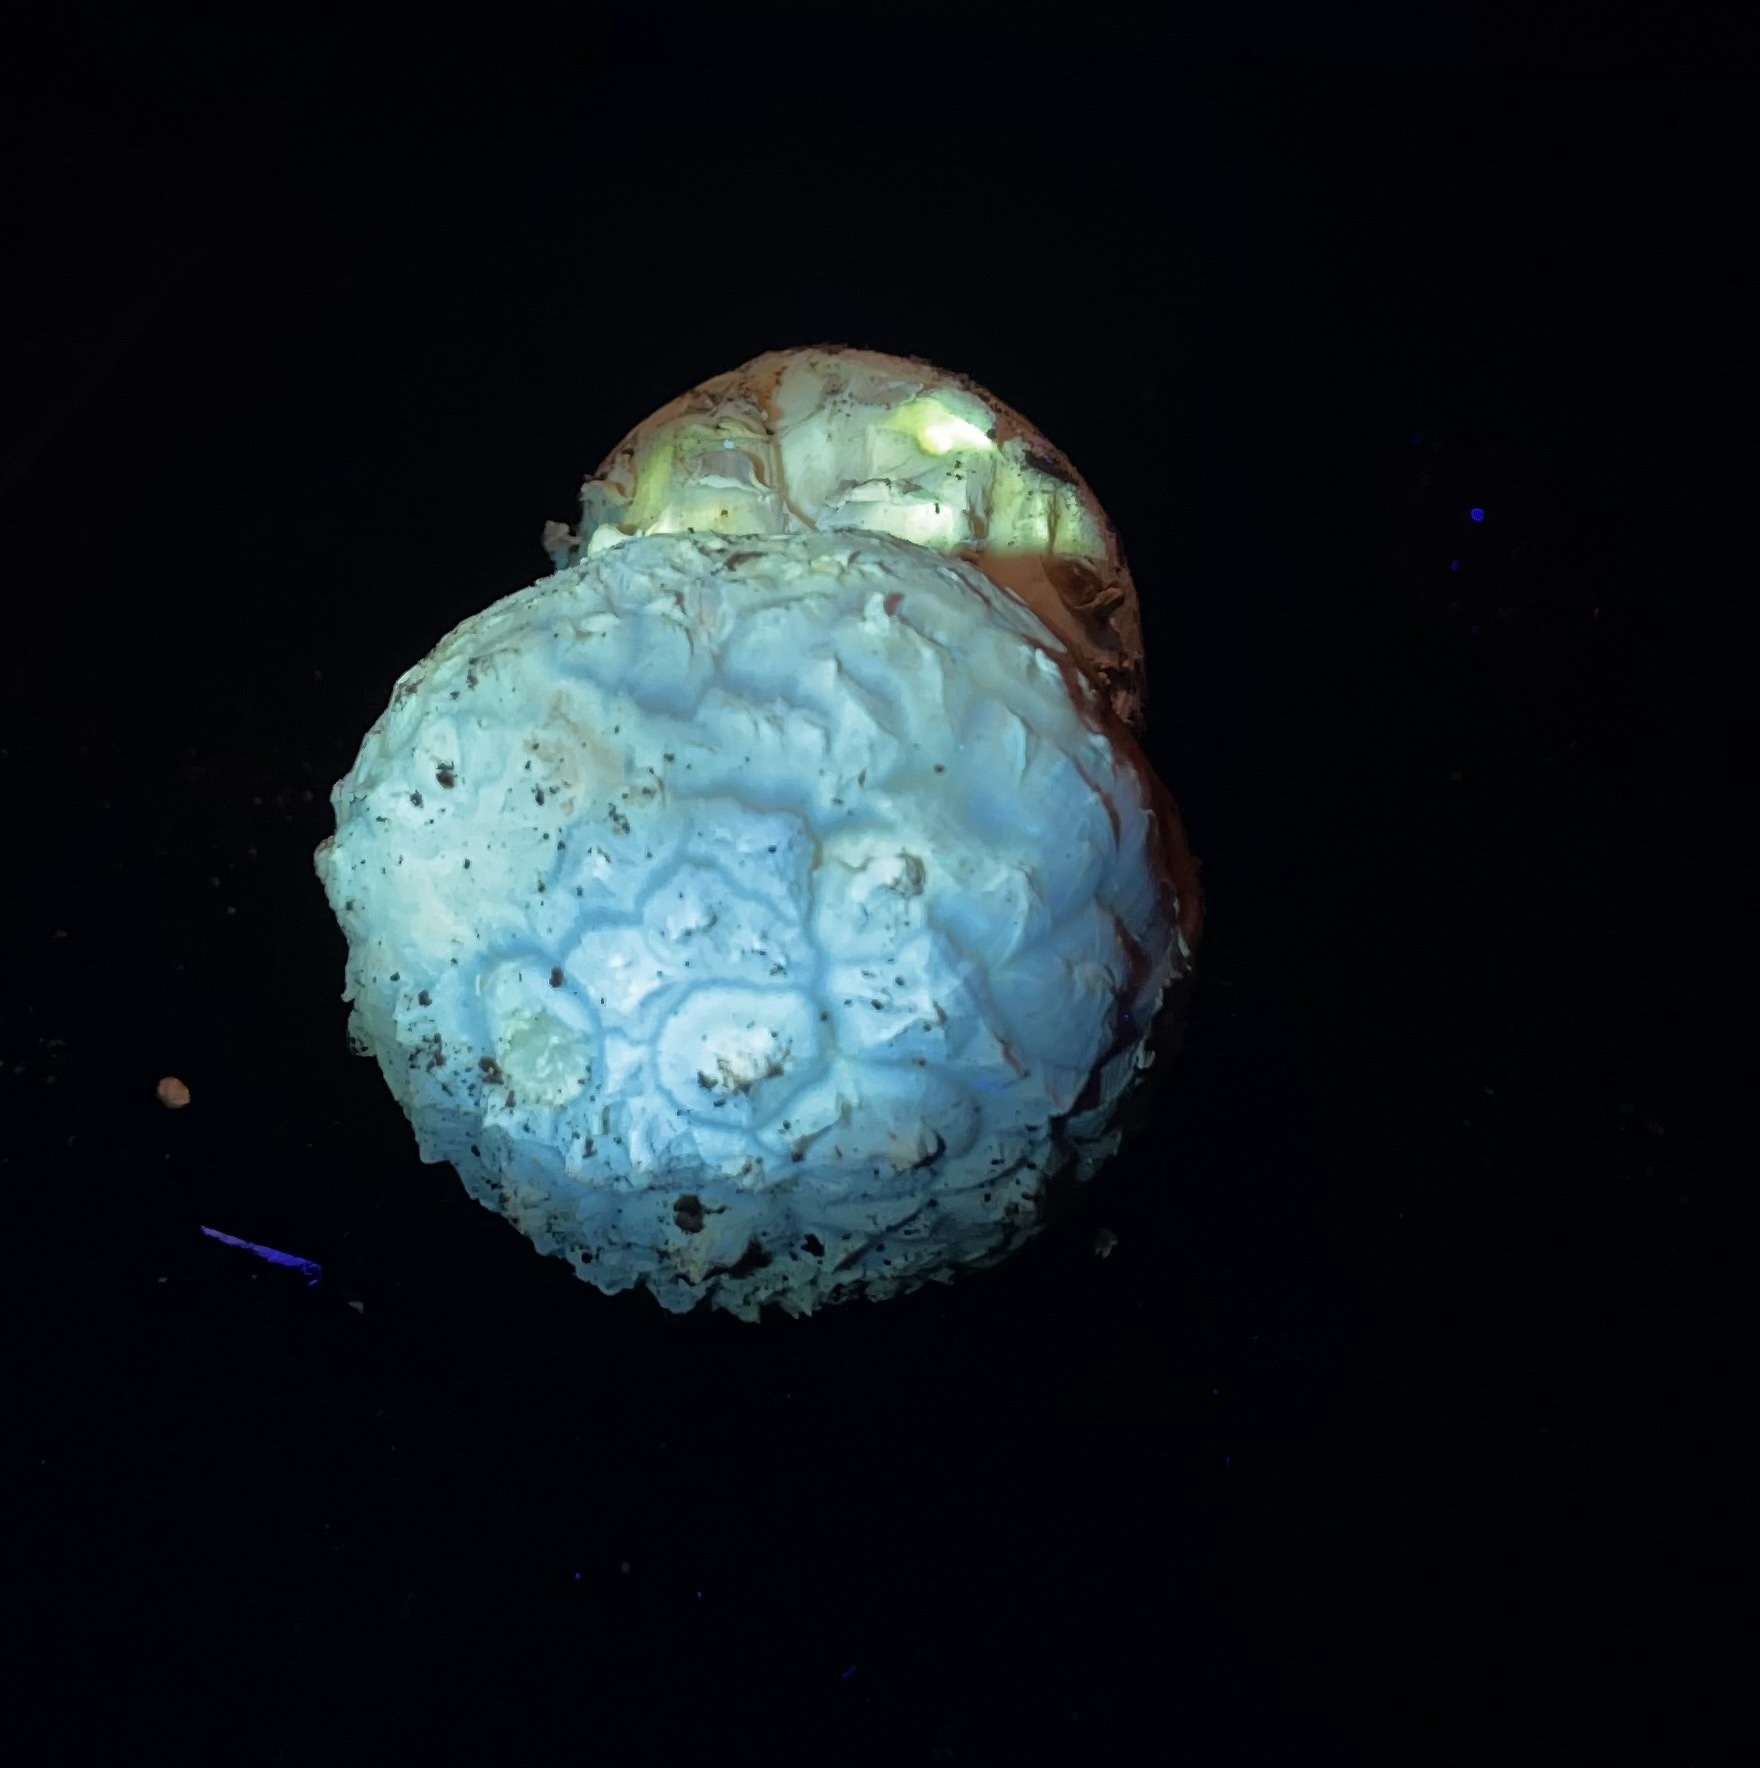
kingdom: Fungi
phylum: Basidiomycota
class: Agaricomycetes
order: Agaricales
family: Amanitaceae
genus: Amanita
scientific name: Amanita magniverrucata
